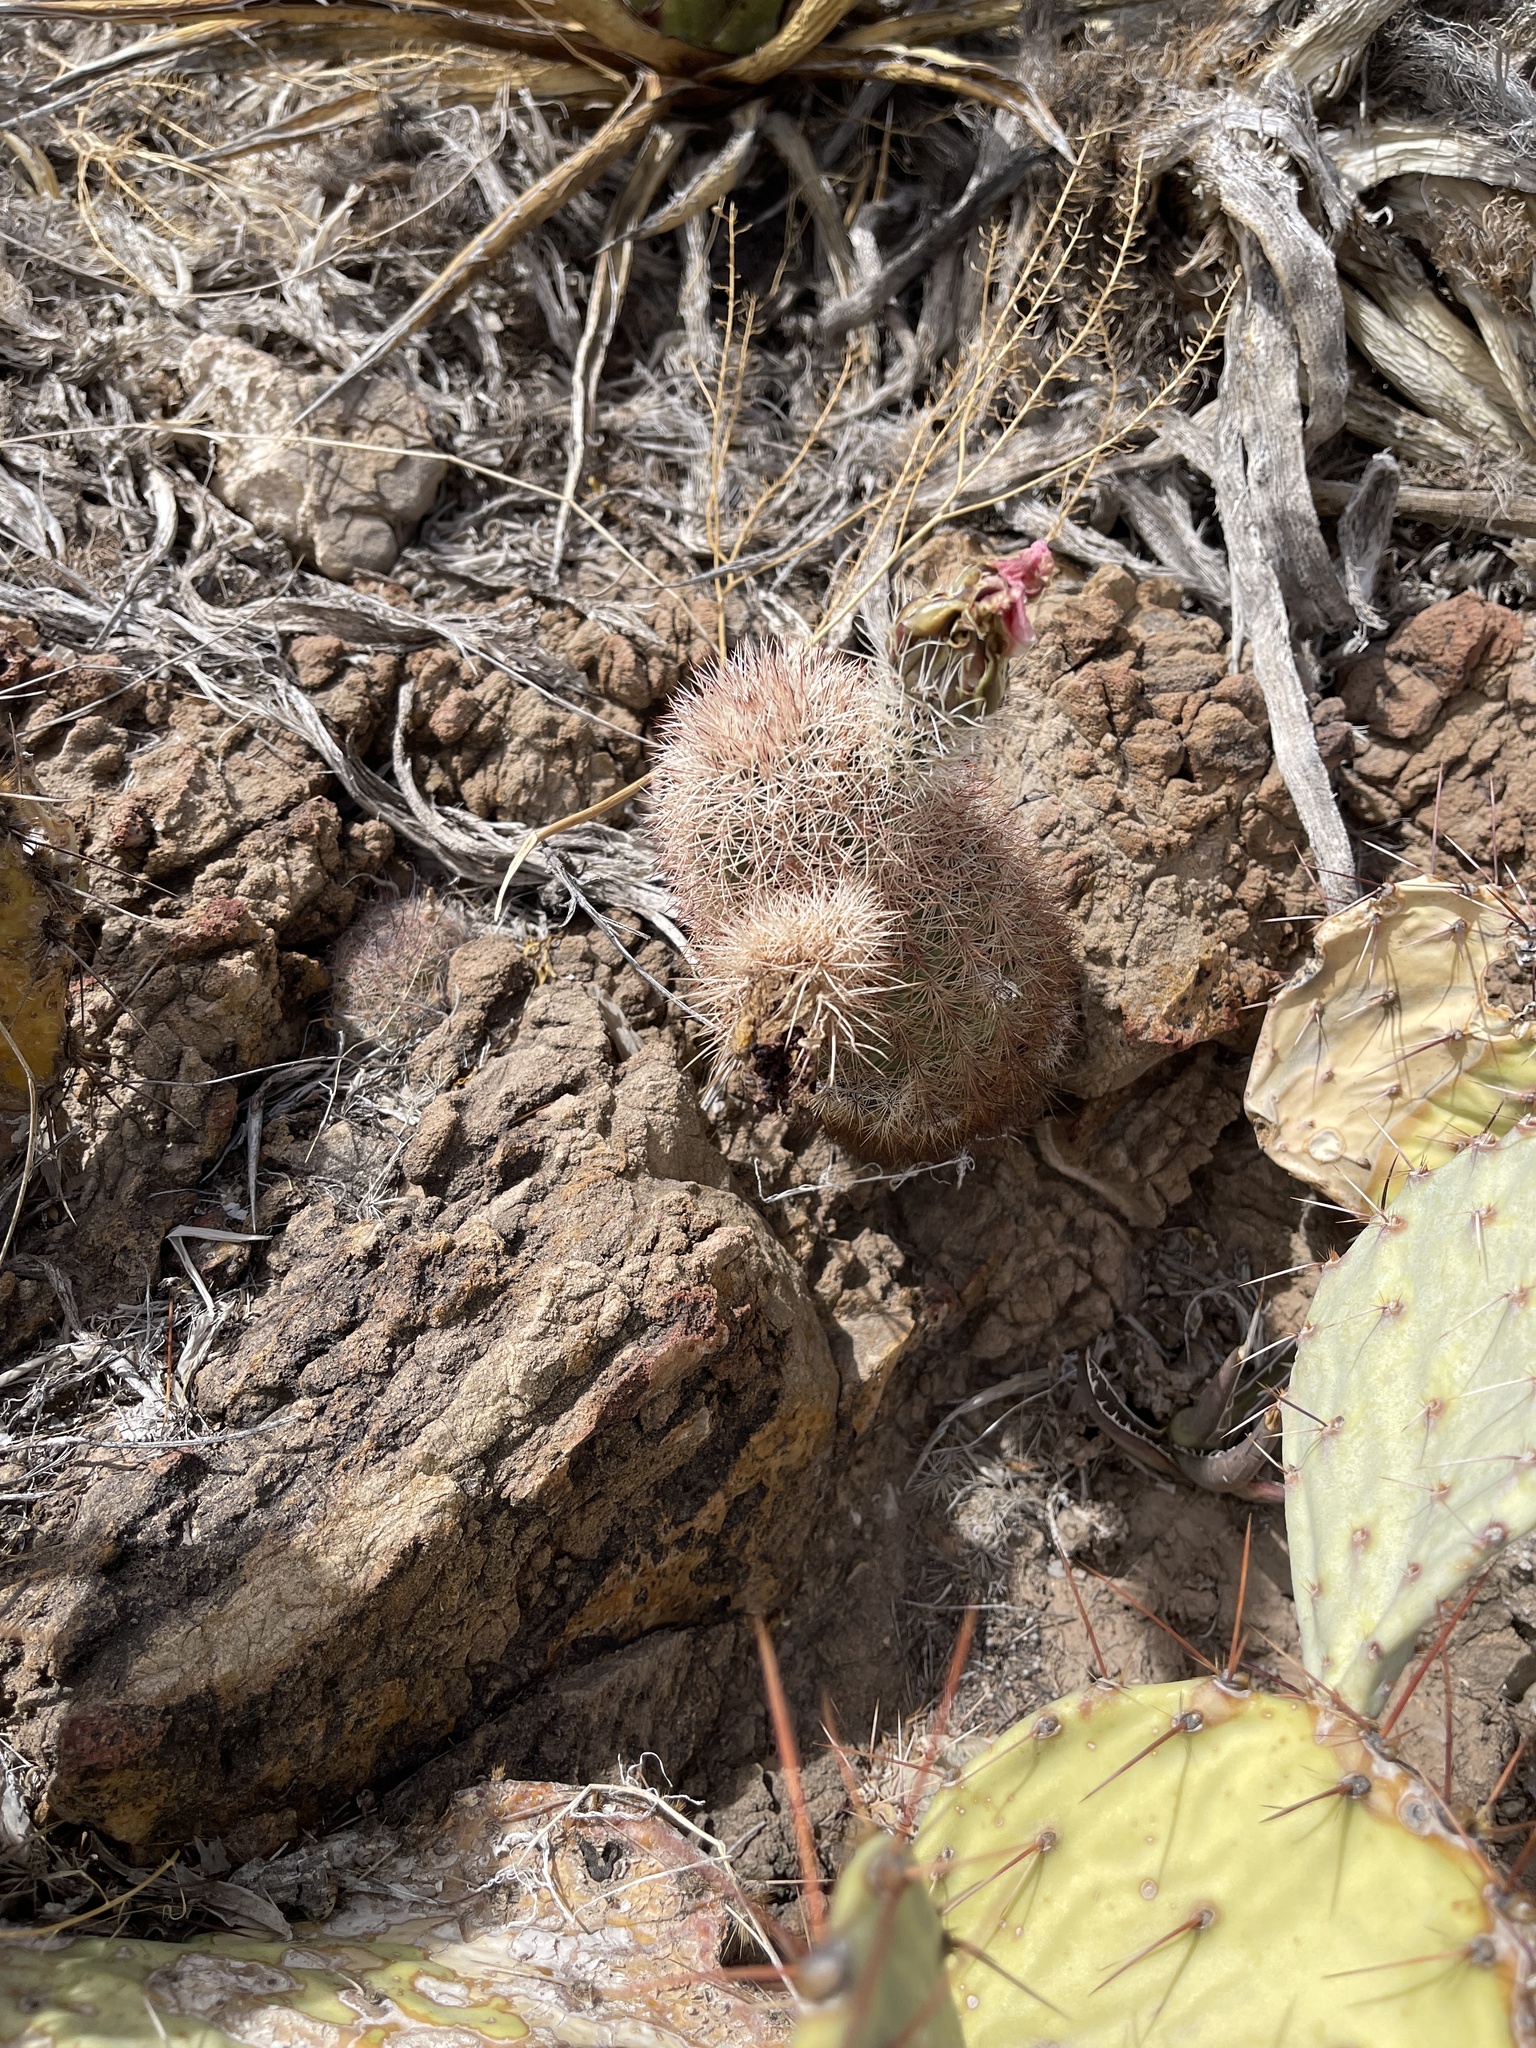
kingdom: Plantae
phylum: Tracheophyta
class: Magnoliopsida
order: Caryophyllales
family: Cactaceae
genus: Echinocereus
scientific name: Echinocereus dasyacanthus
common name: Spiny hedgehog cactus
